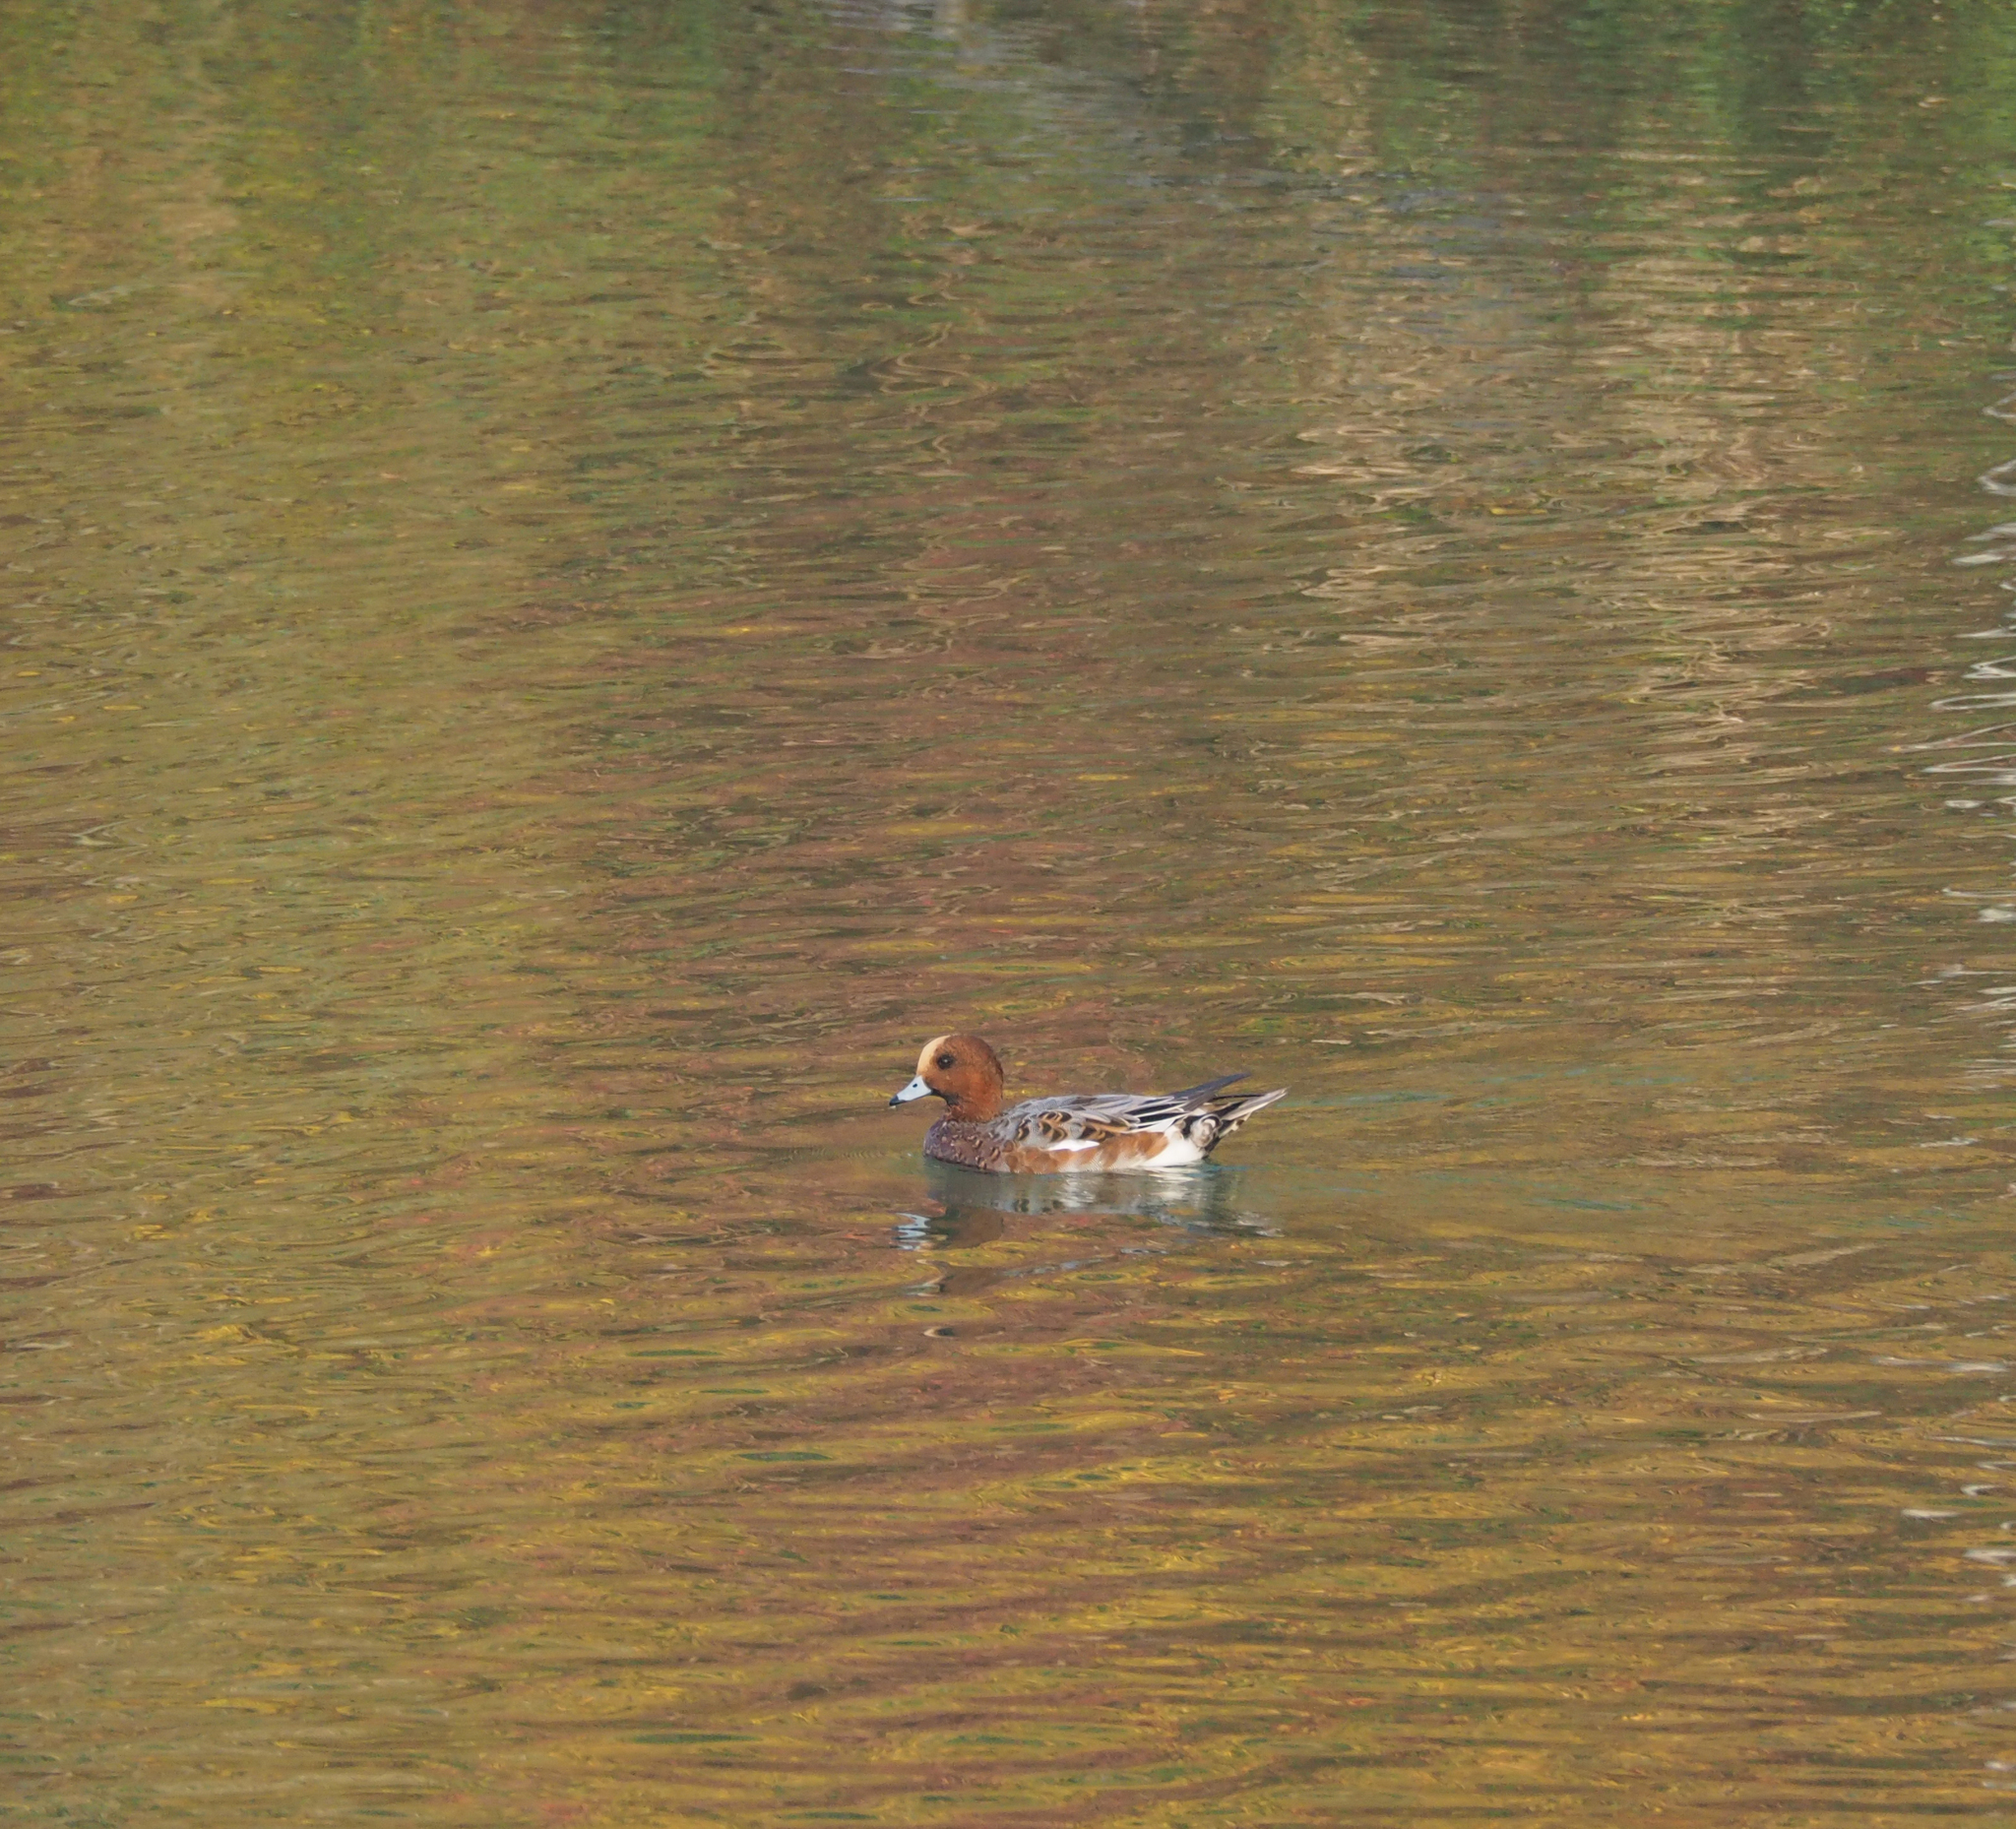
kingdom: Animalia
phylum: Chordata
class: Aves
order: Anseriformes
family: Anatidae
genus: Mareca
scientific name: Mareca penelope
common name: Eurasian wigeon
